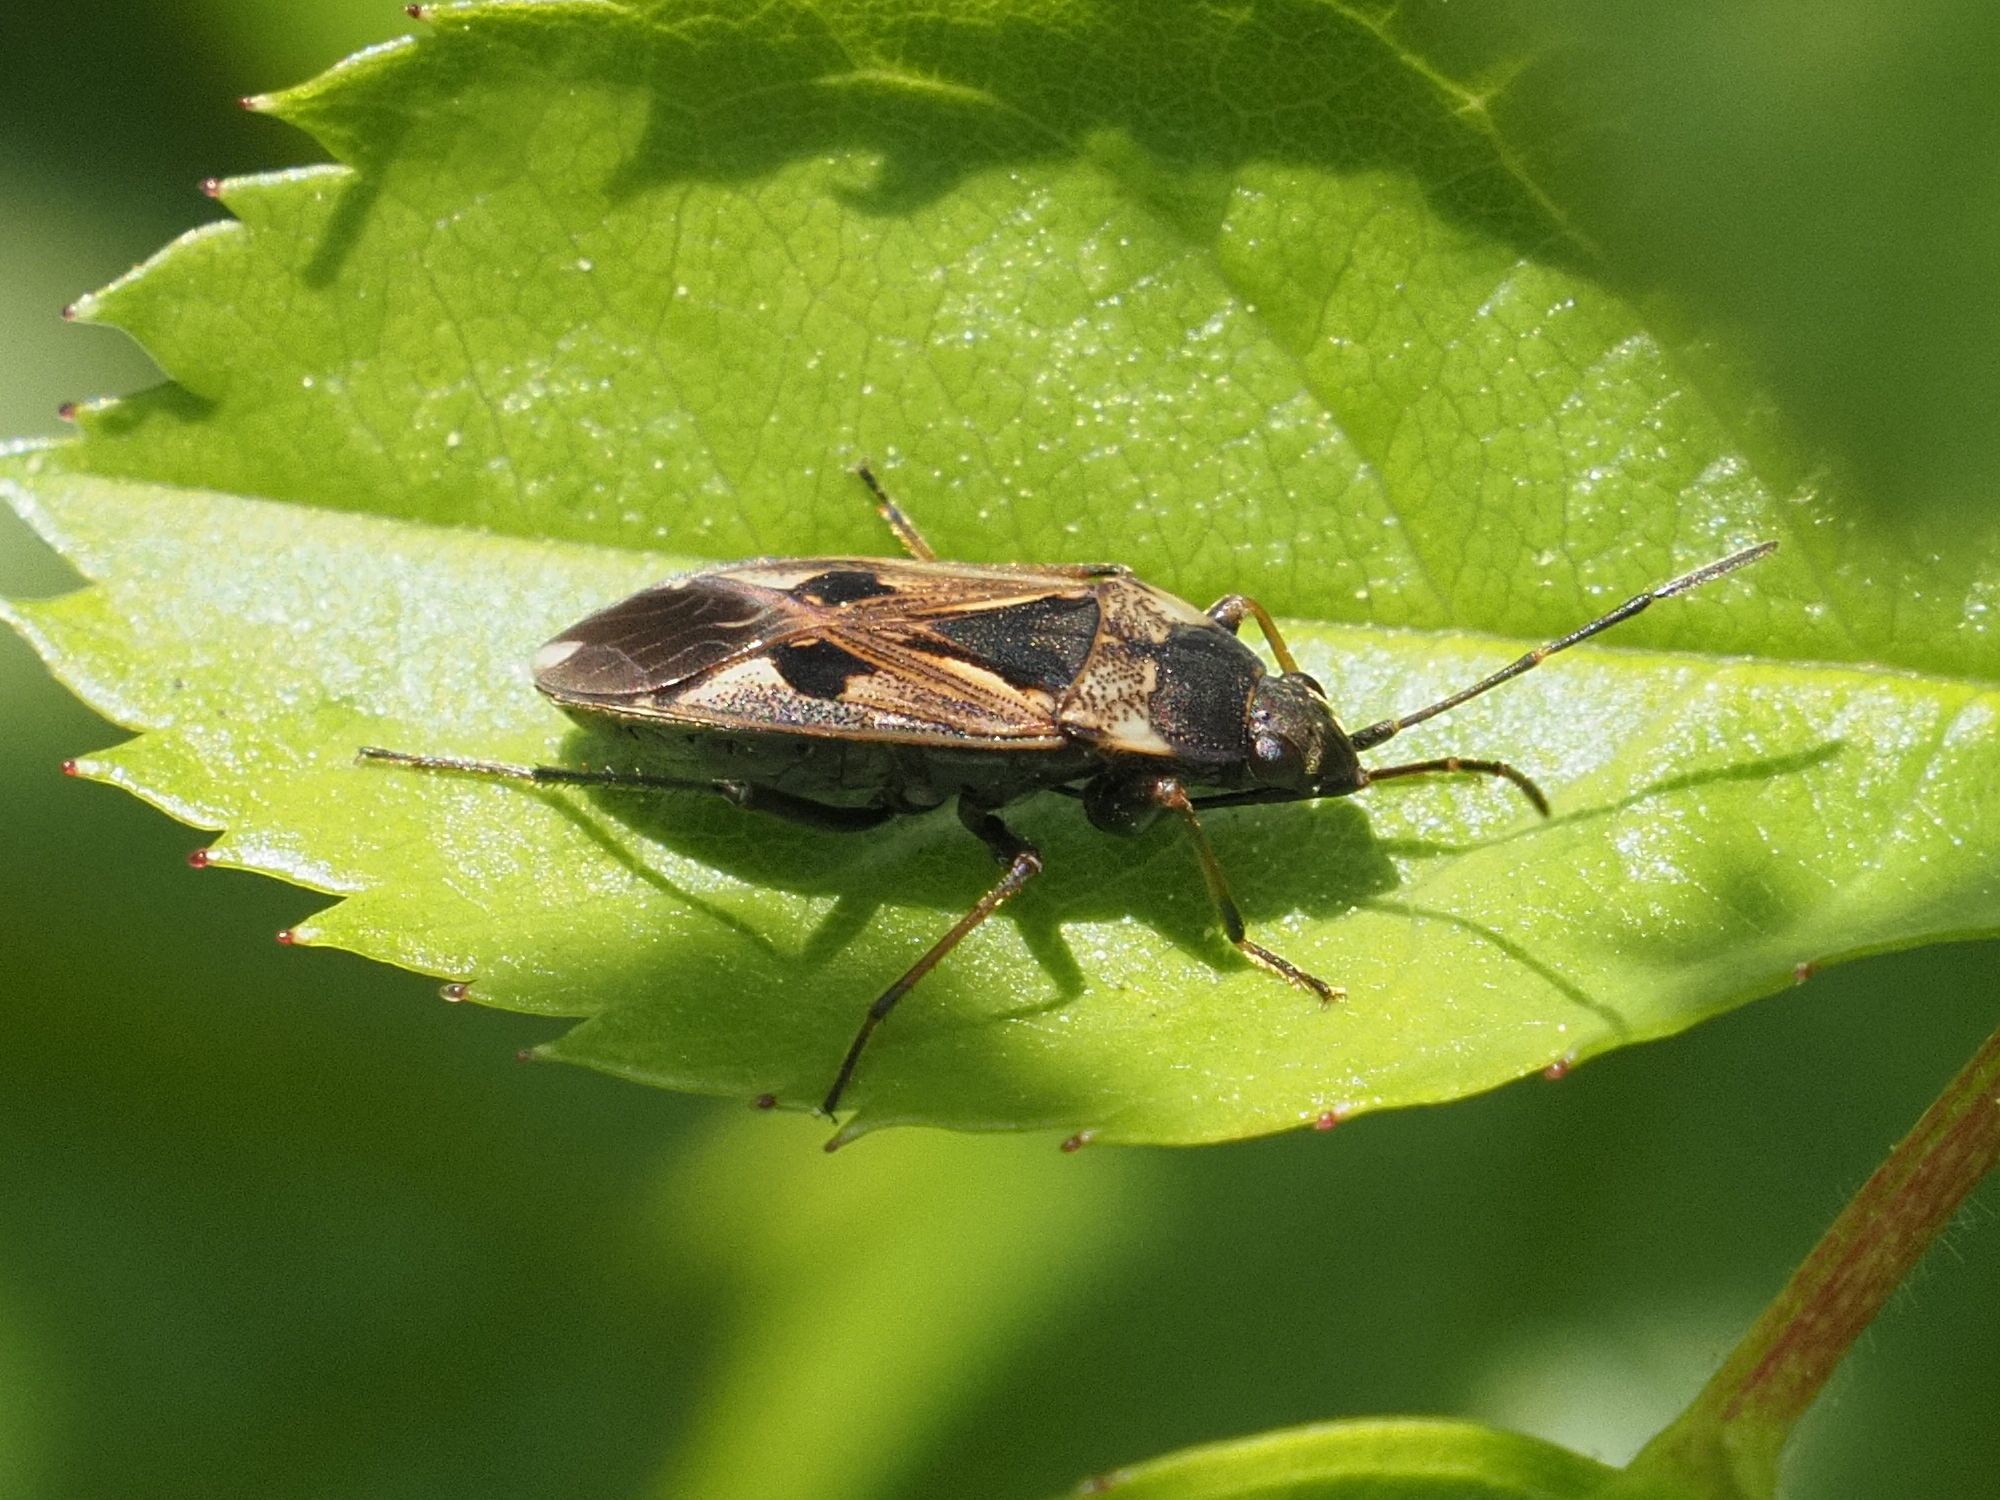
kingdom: Animalia
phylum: Arthropoda
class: Insecta
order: Hemiptera
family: Rhyparochromidae
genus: Rhyparochromus
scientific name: Rhyparochromus vulgaris
